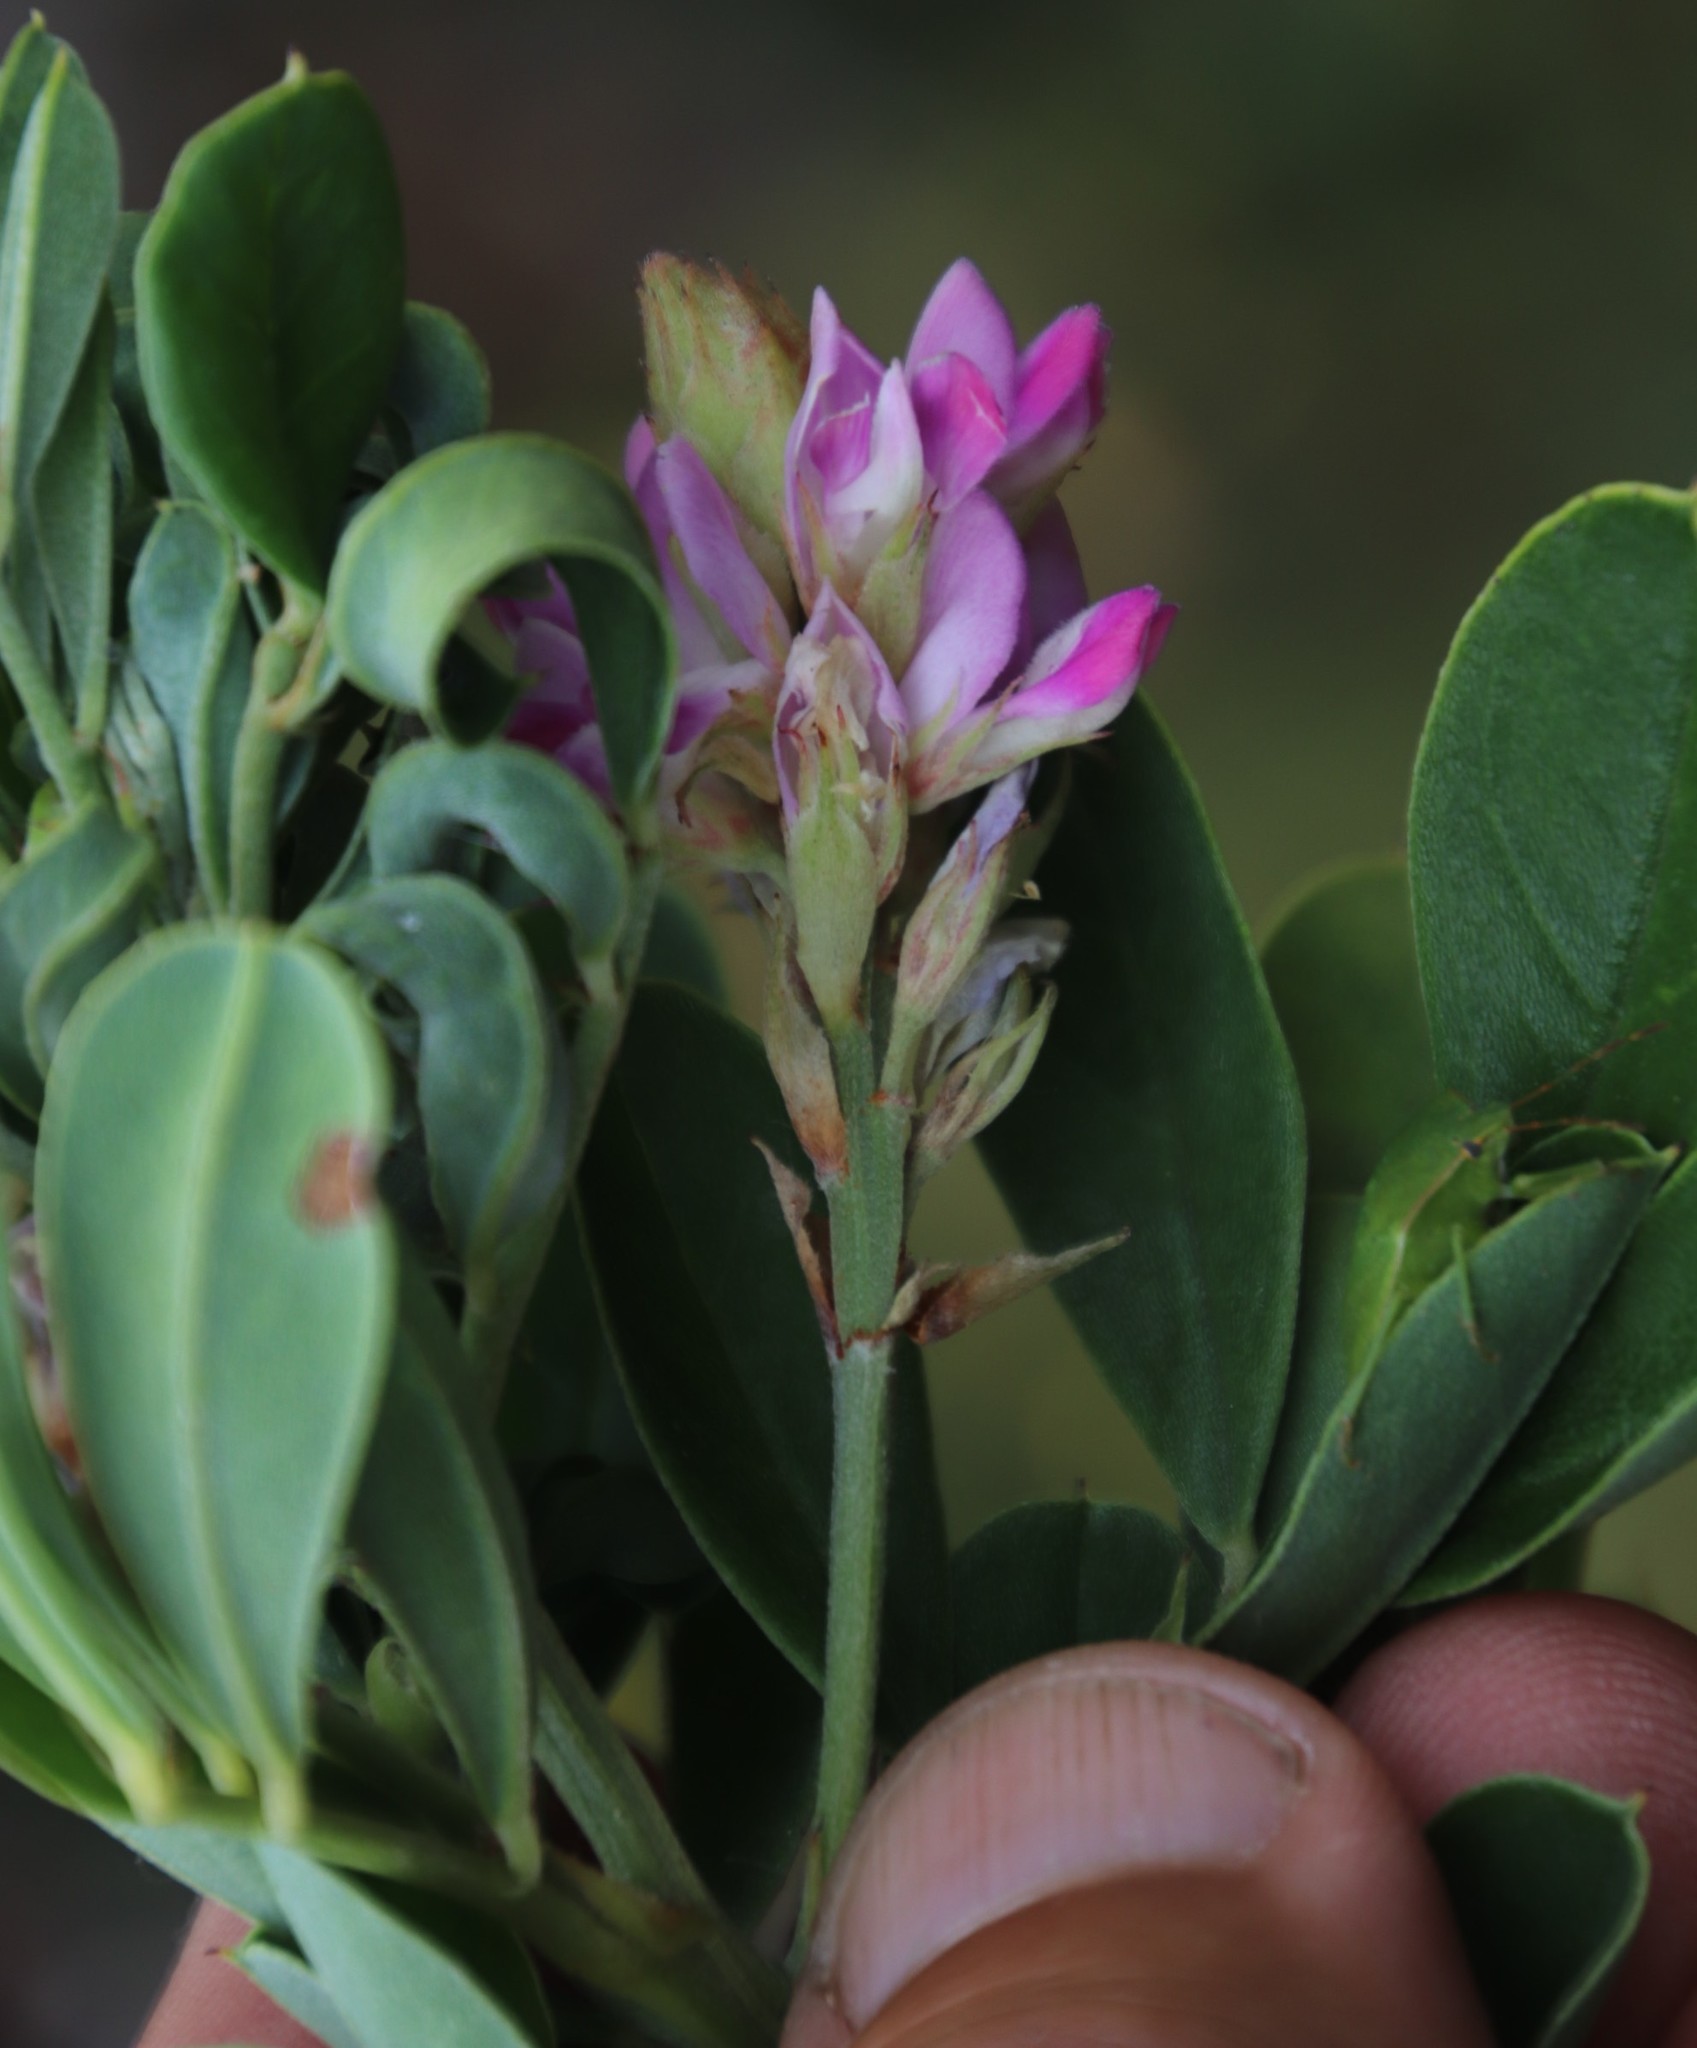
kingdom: Plantae
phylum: Tracheophyta
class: Magnoliopsida
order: Fabales
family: Fabaceae
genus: Indigofera
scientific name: Indigofera cytisoides
